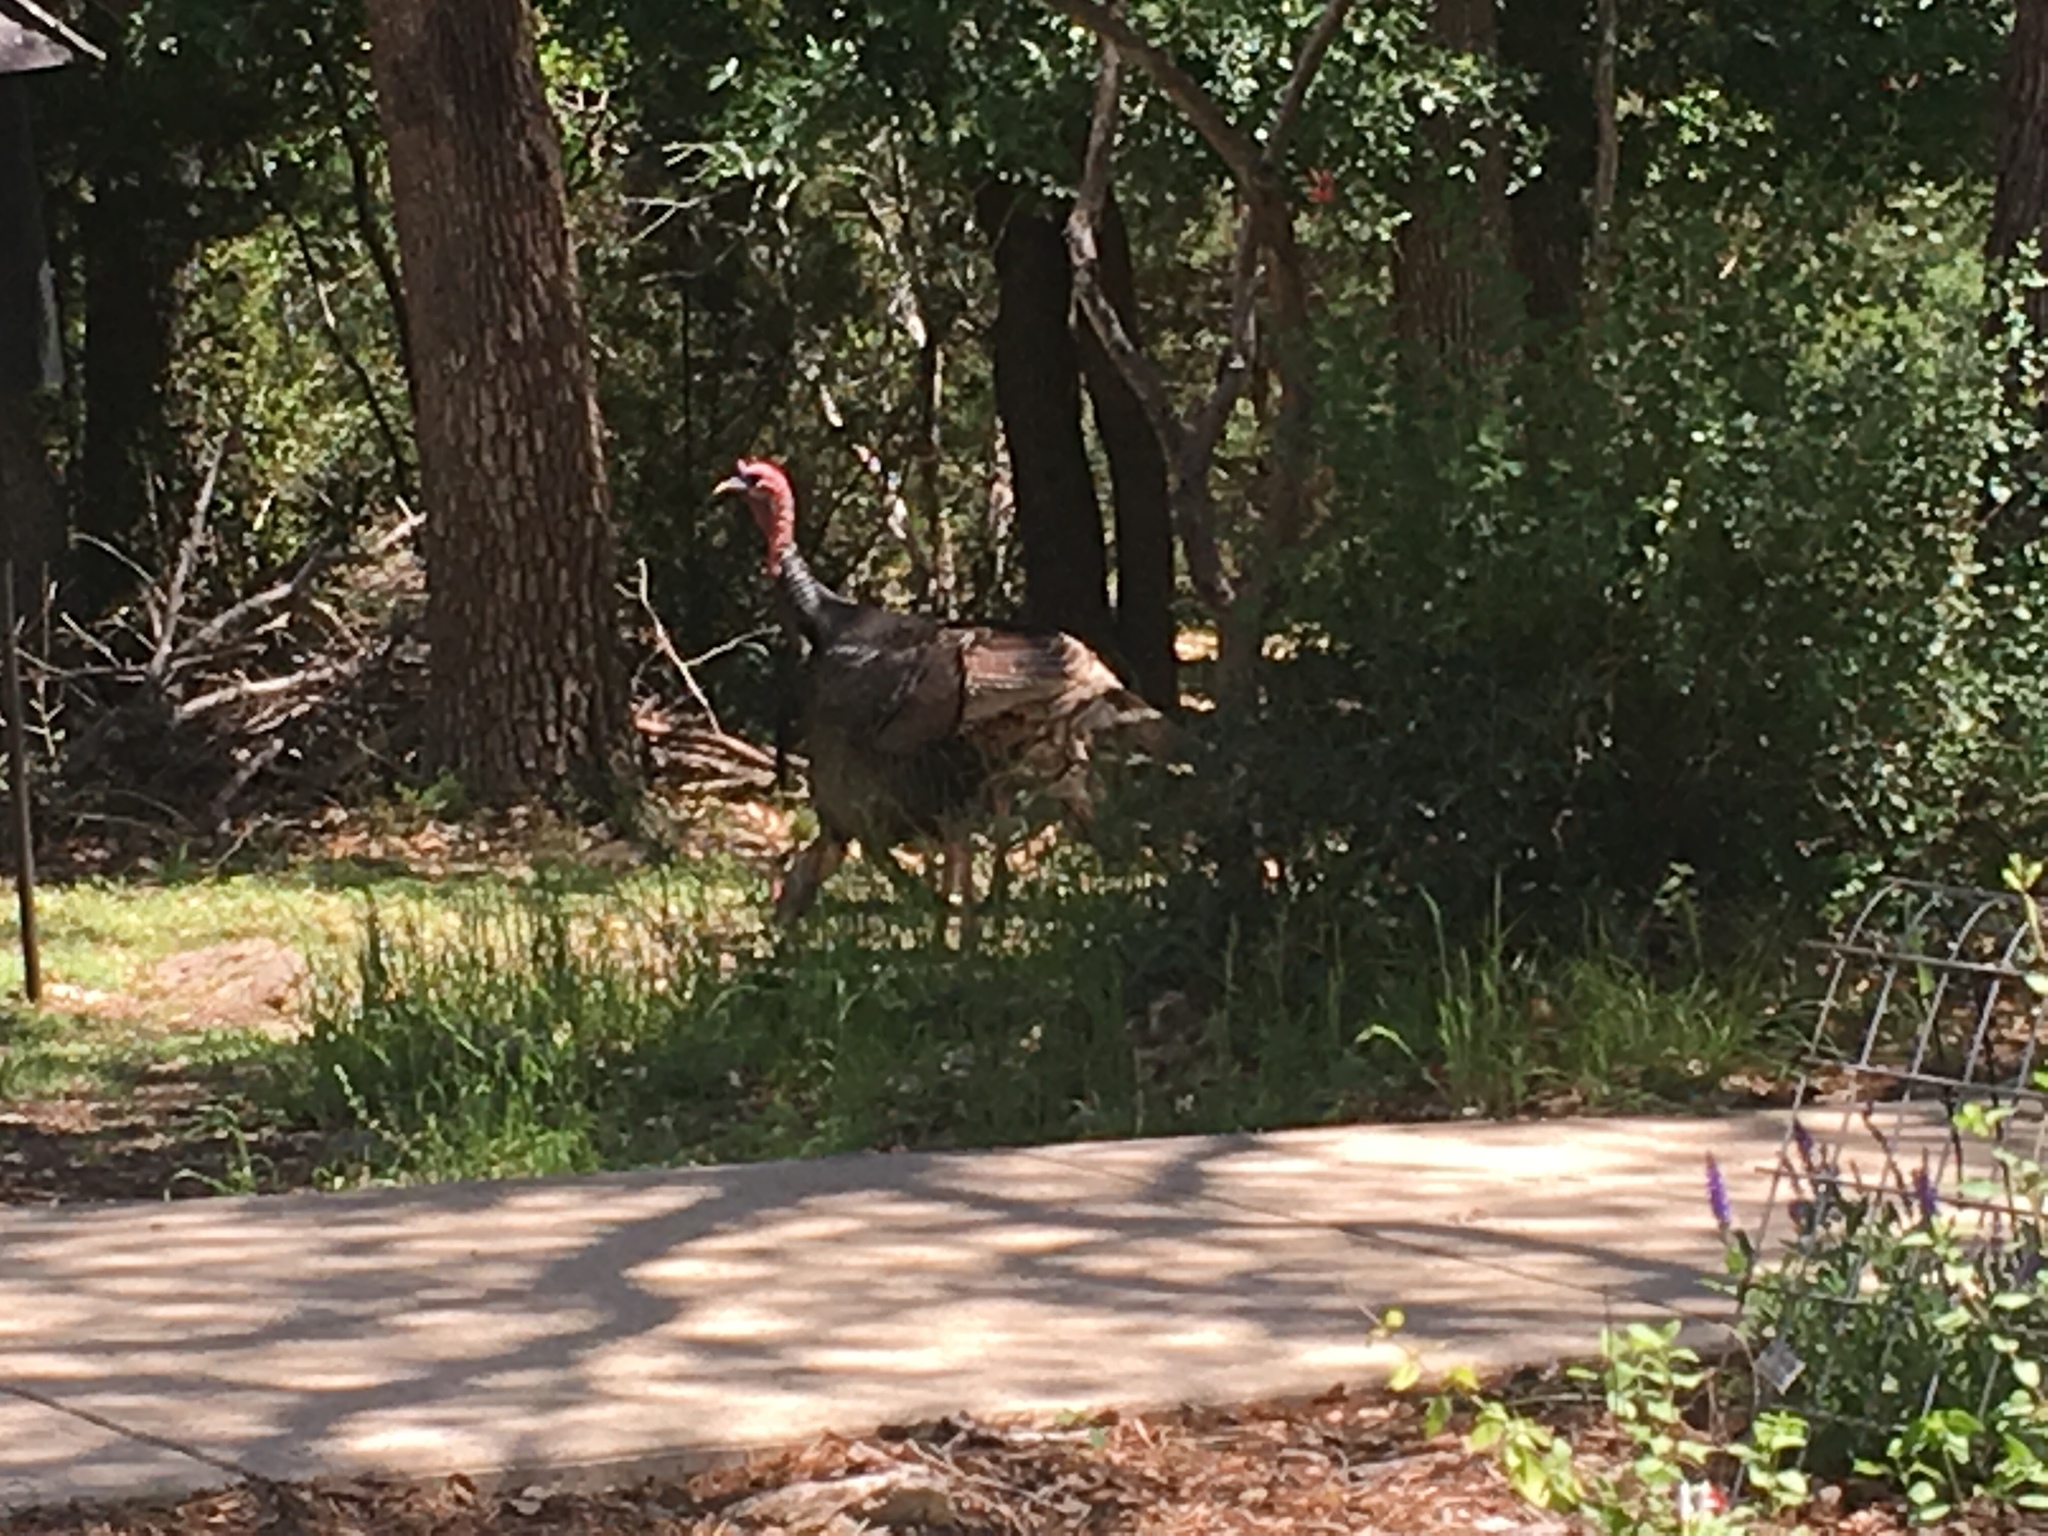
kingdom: Animalia
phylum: Chordata
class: Aves
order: Galliformes
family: Phasianidae
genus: Meleagris
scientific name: Meleagris gallopavo
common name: Wild turkey
